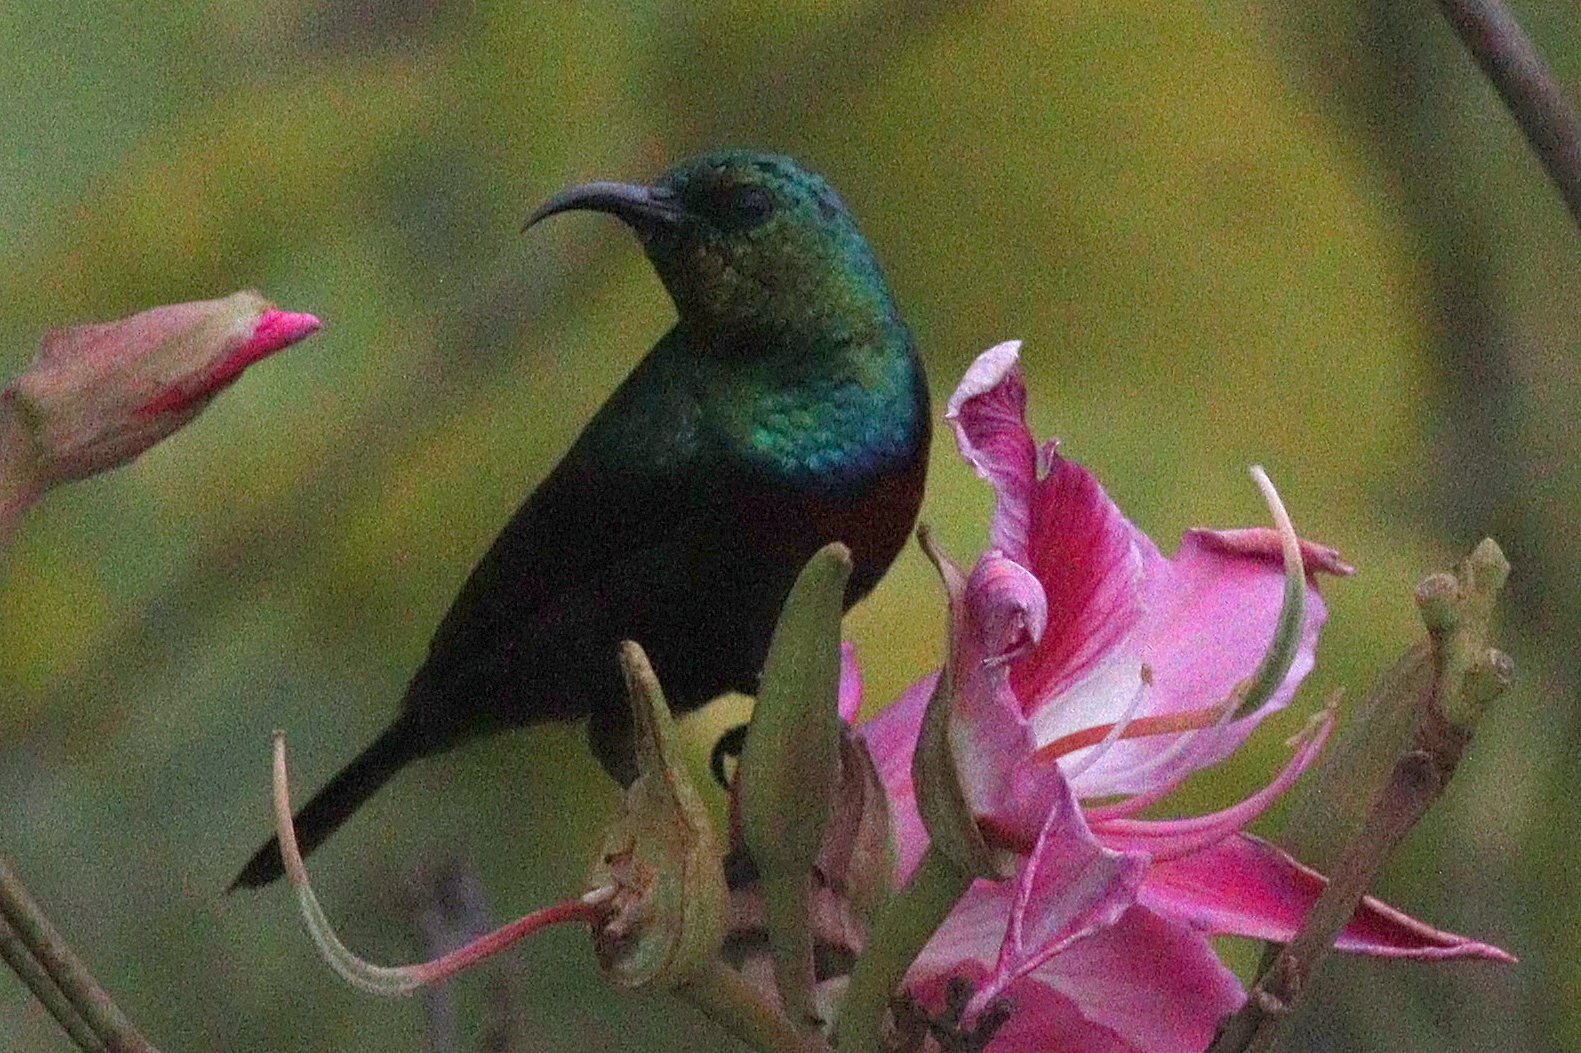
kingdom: Animalia
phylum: Chordata
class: Aves
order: Passeriformes
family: Nectariniidae
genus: Cinnyris
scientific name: Cinnyris bifasciatus
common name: Purple-banded sunbird
